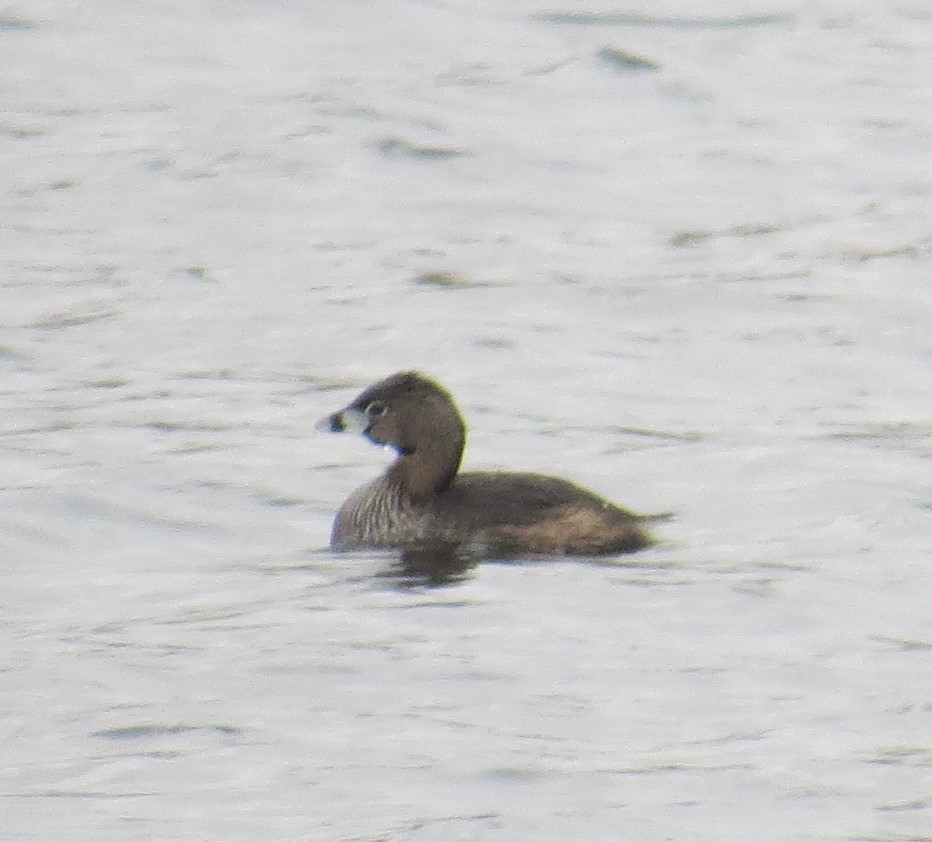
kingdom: Animalia
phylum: Chordata
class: Aves
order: Podicipediformes
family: Podicipedidae
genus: Podilymbus
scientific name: Podilymbus podiceps
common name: Pied-billed grebe
